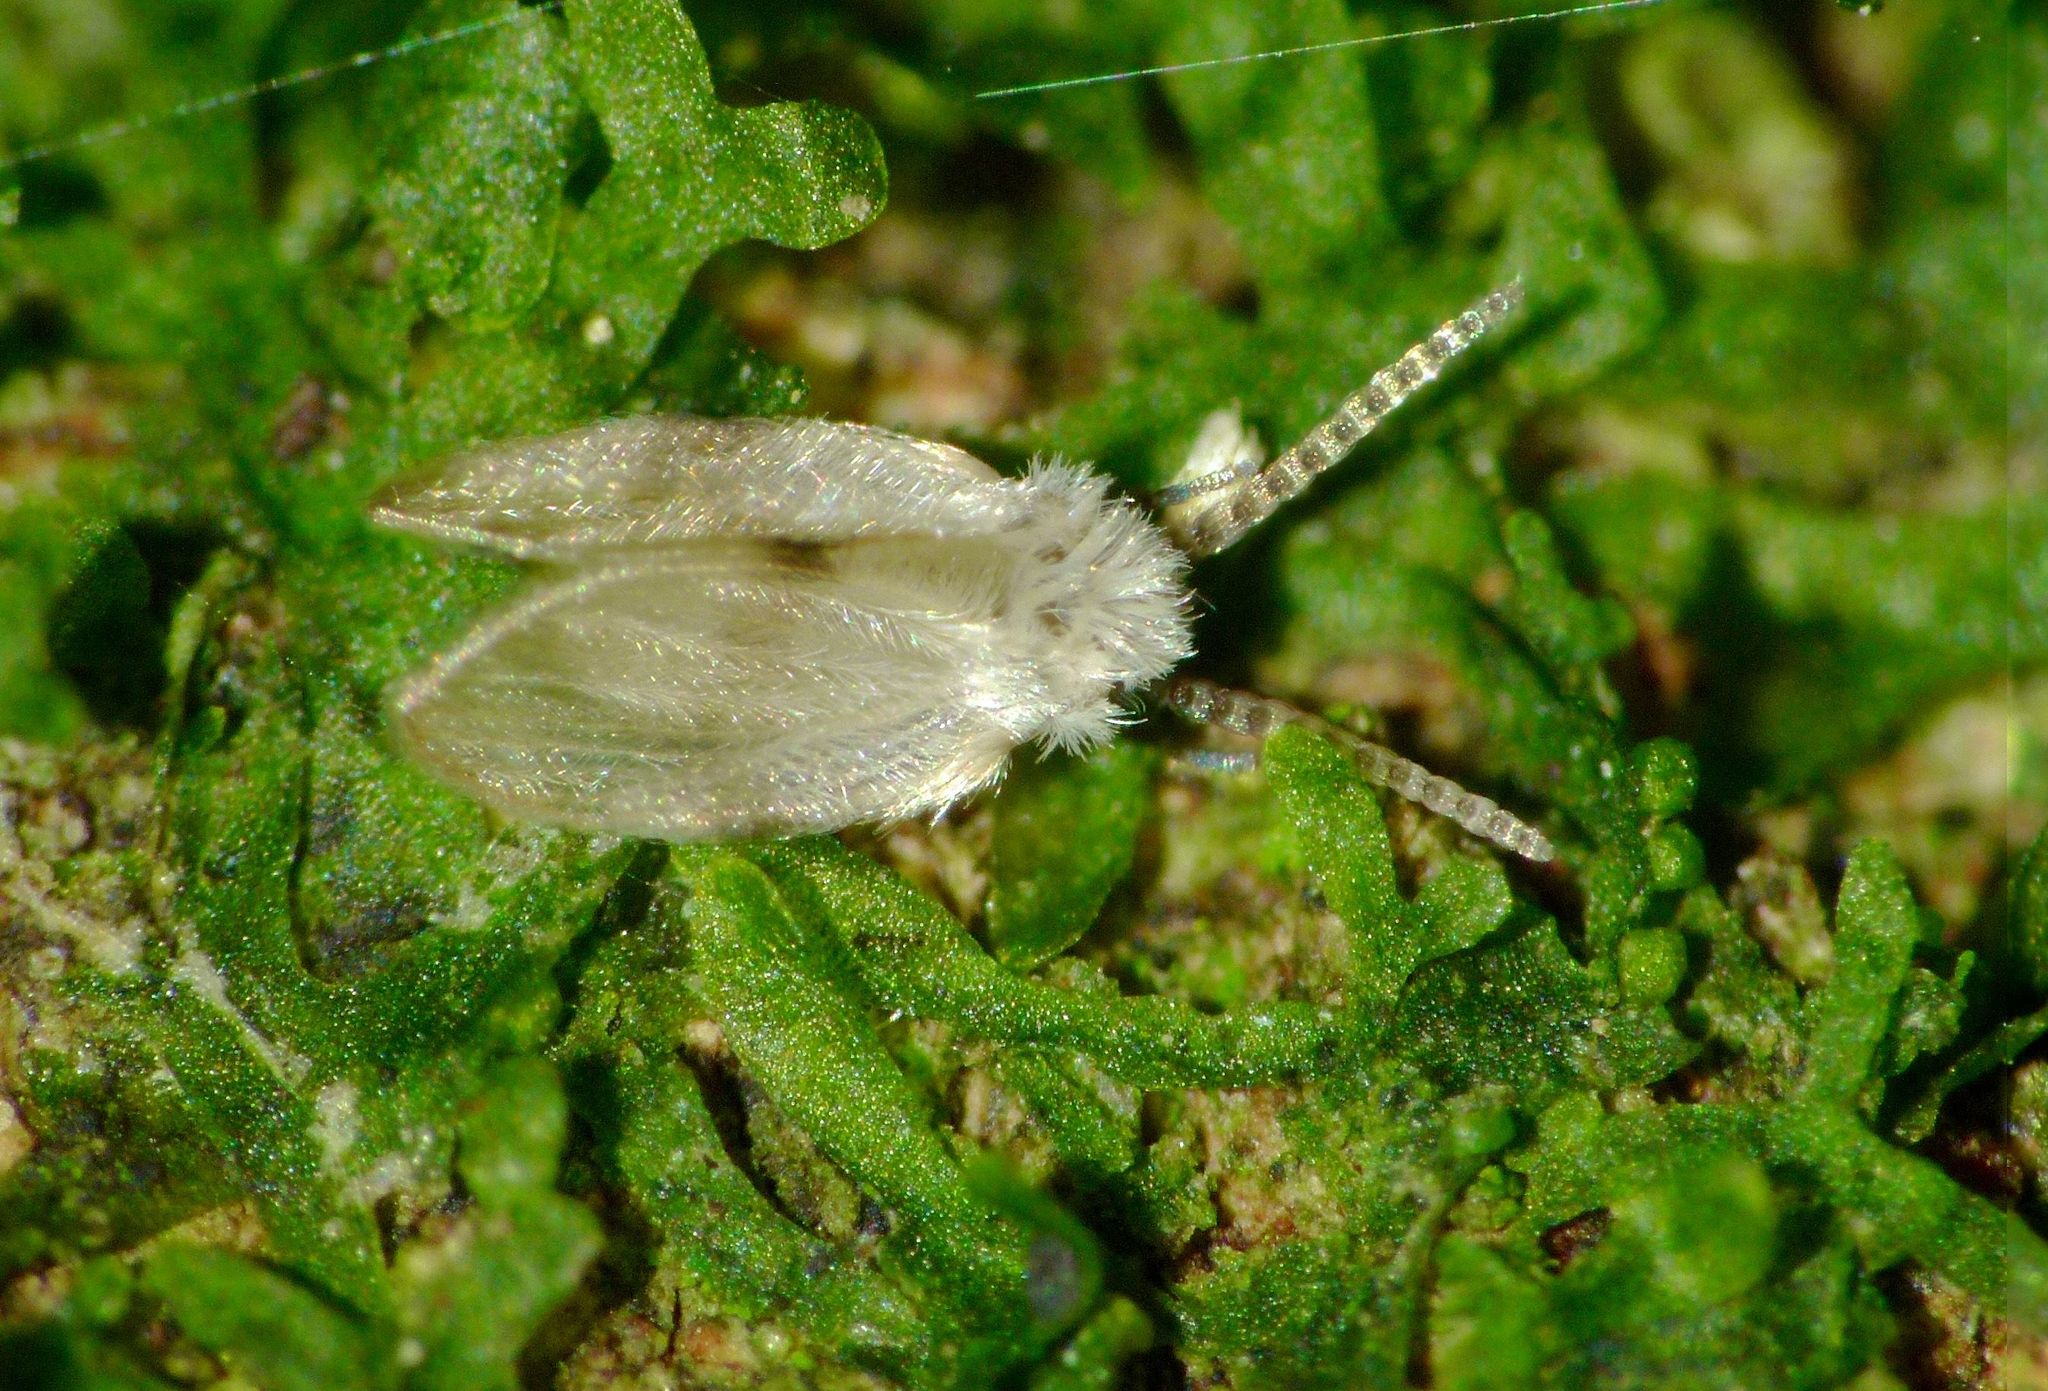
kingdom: Animalia
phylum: Arthropoda
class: Insecta
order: Diptera
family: Psychodidae
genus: Psychoda
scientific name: Psychoda sigma
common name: Moth fly
